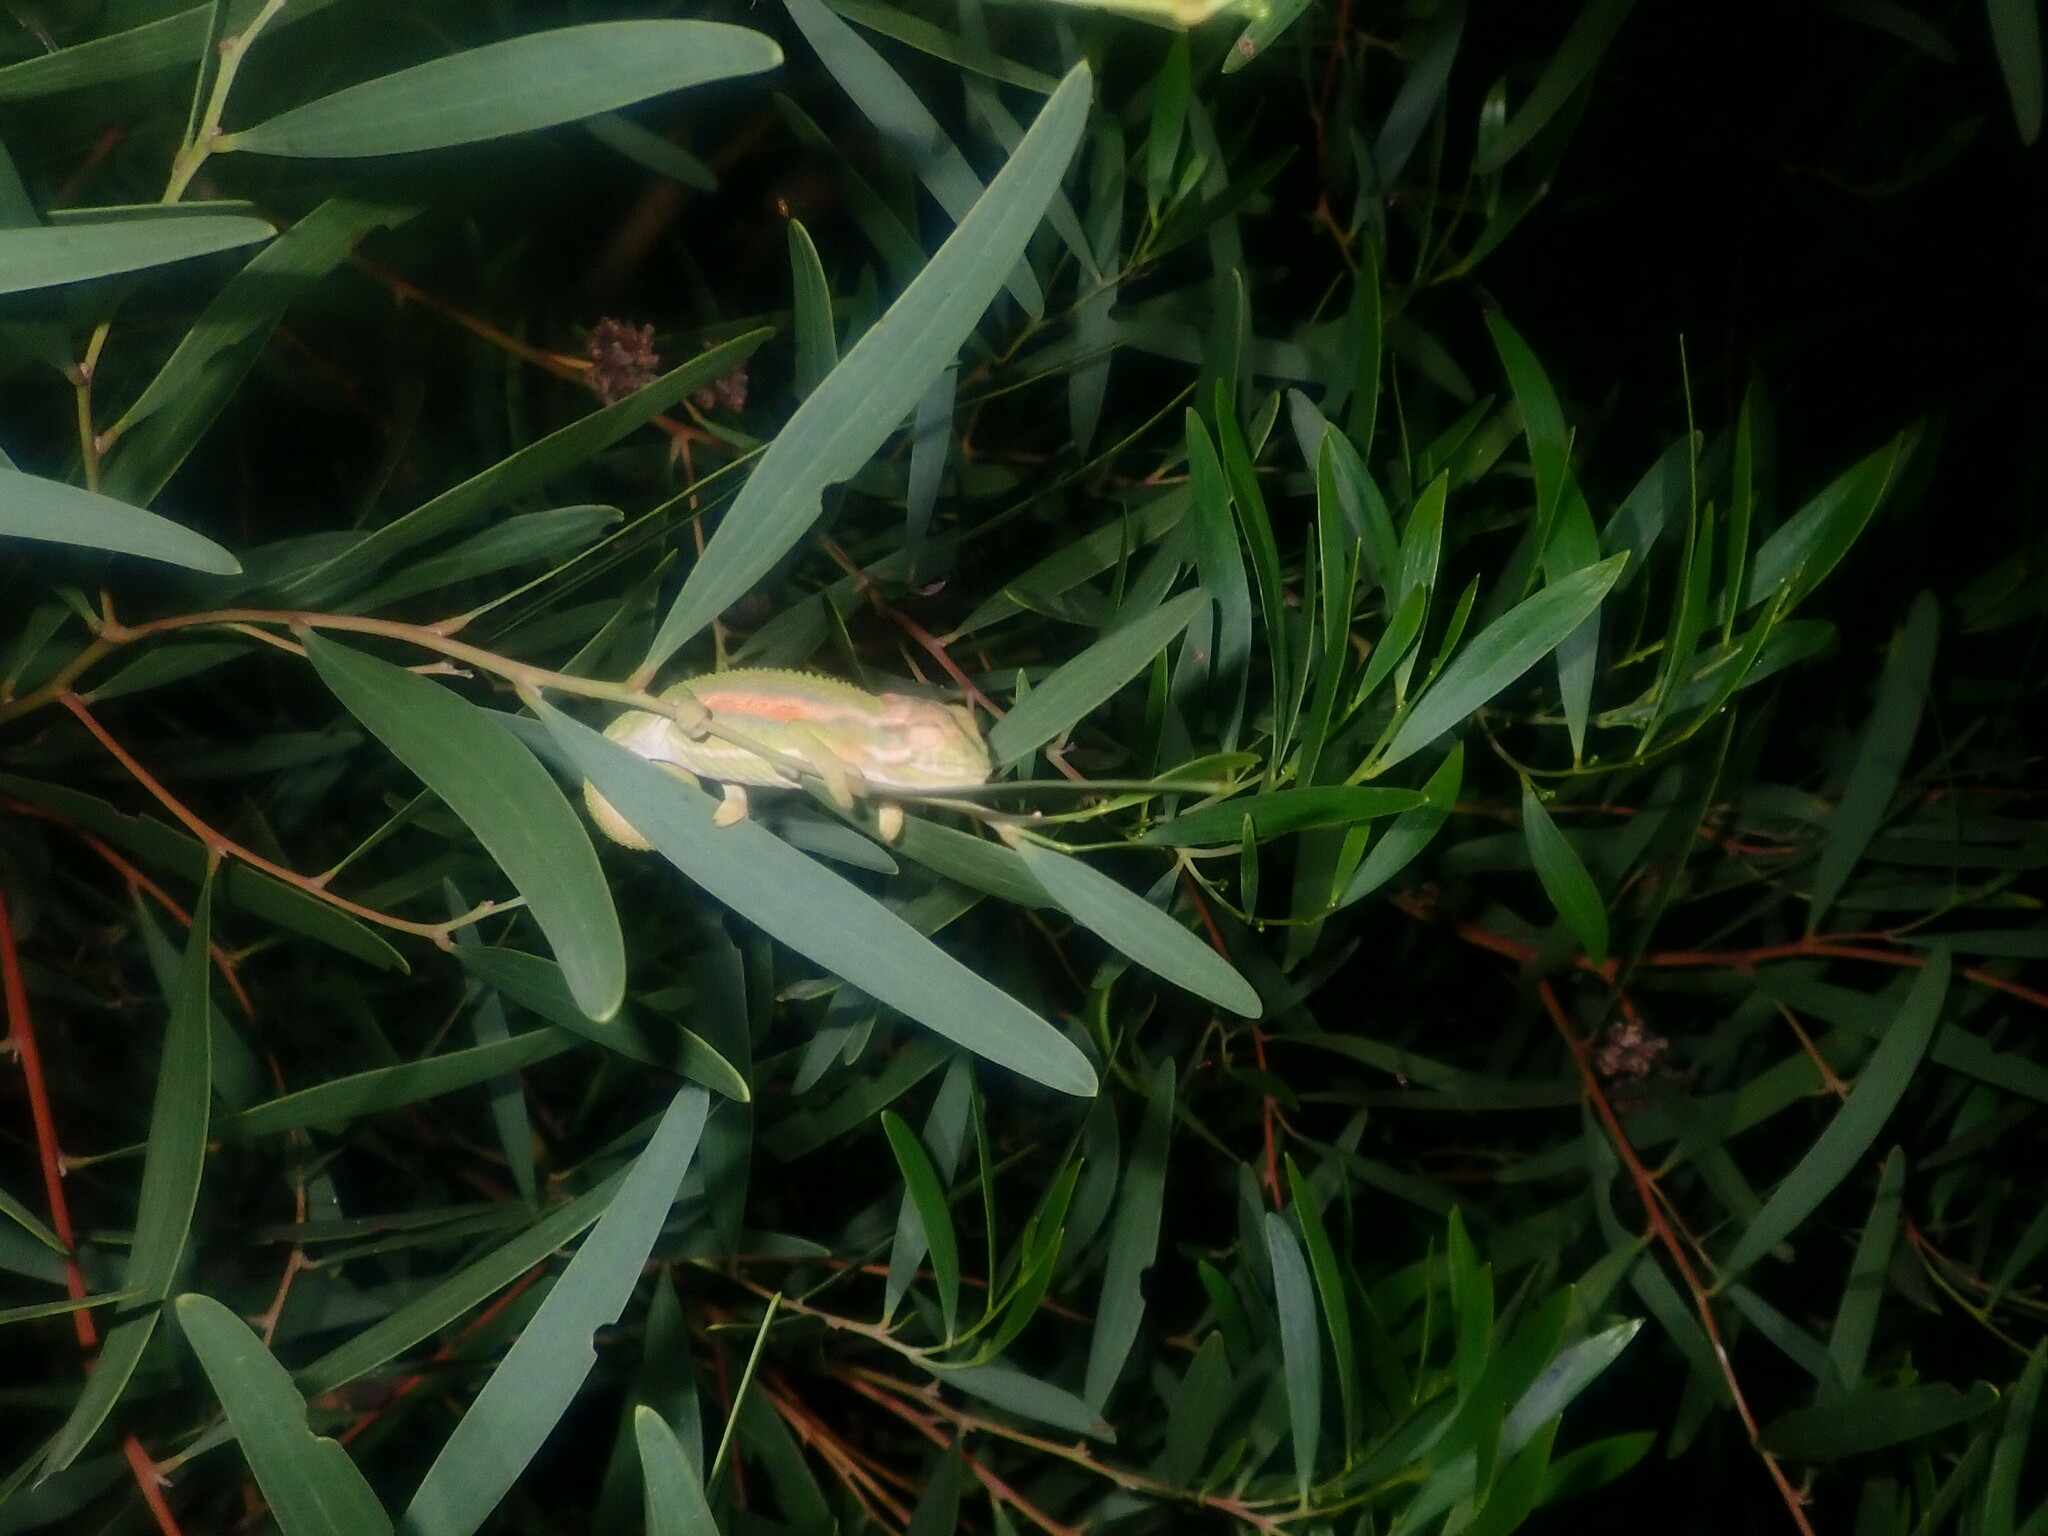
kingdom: Animalia
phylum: Chordata
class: Squamata
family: Chamaeleonidae
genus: Bradypodion
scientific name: Bradypodion pumilum
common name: Cape dwarf chameleon
